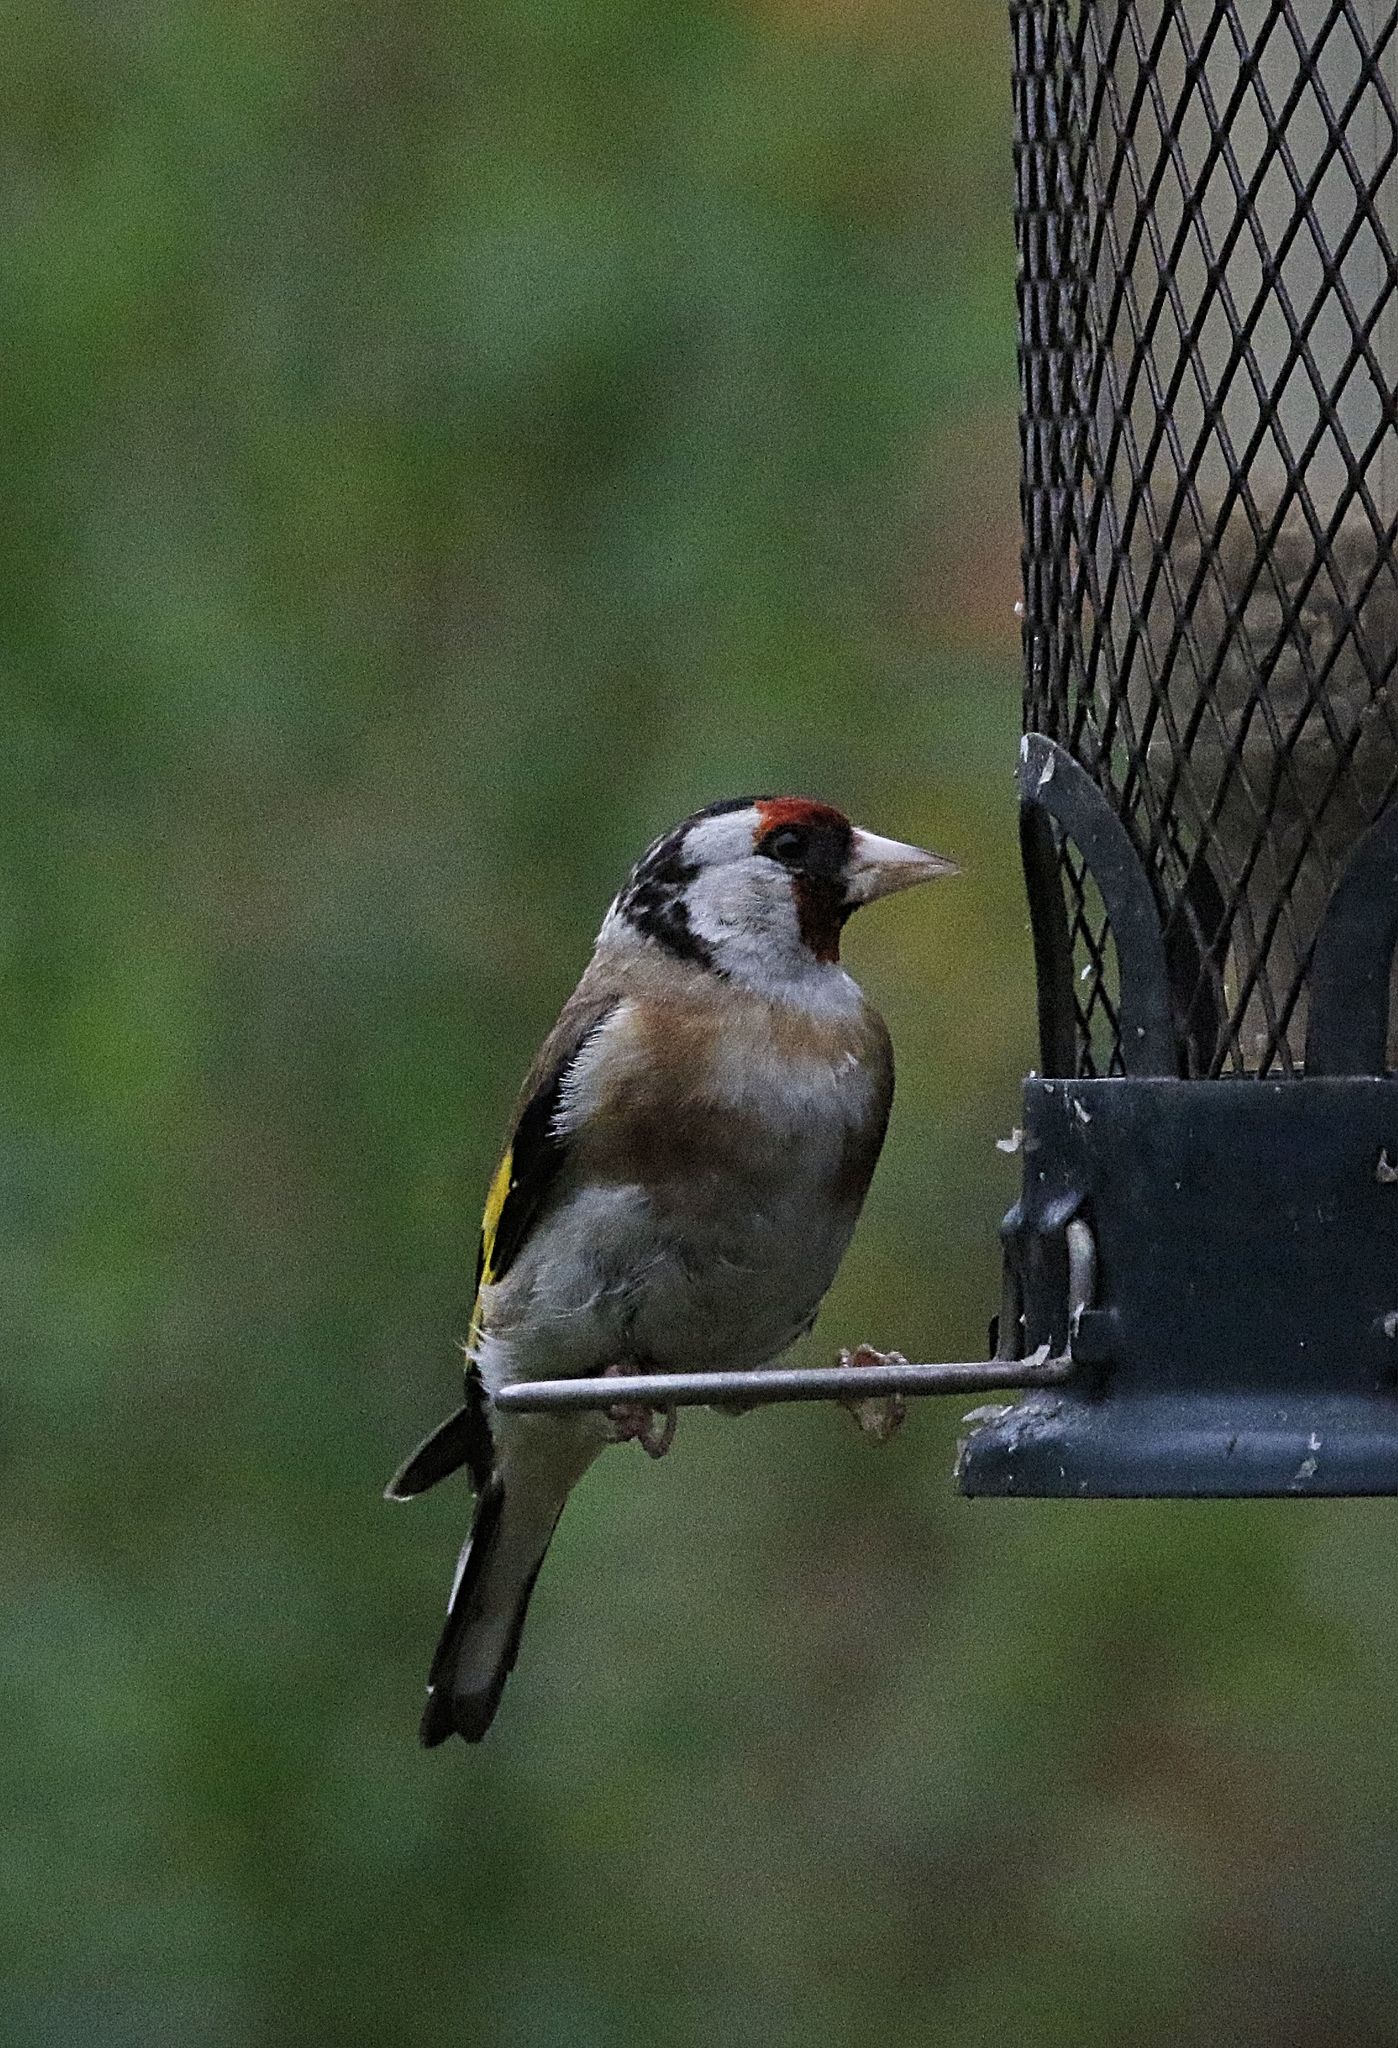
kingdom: Animalia
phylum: Chordata
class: Aves
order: Passeriformes
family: Fringillidae
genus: Carduelis
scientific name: Carduelis carduelis
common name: European goldfinch
